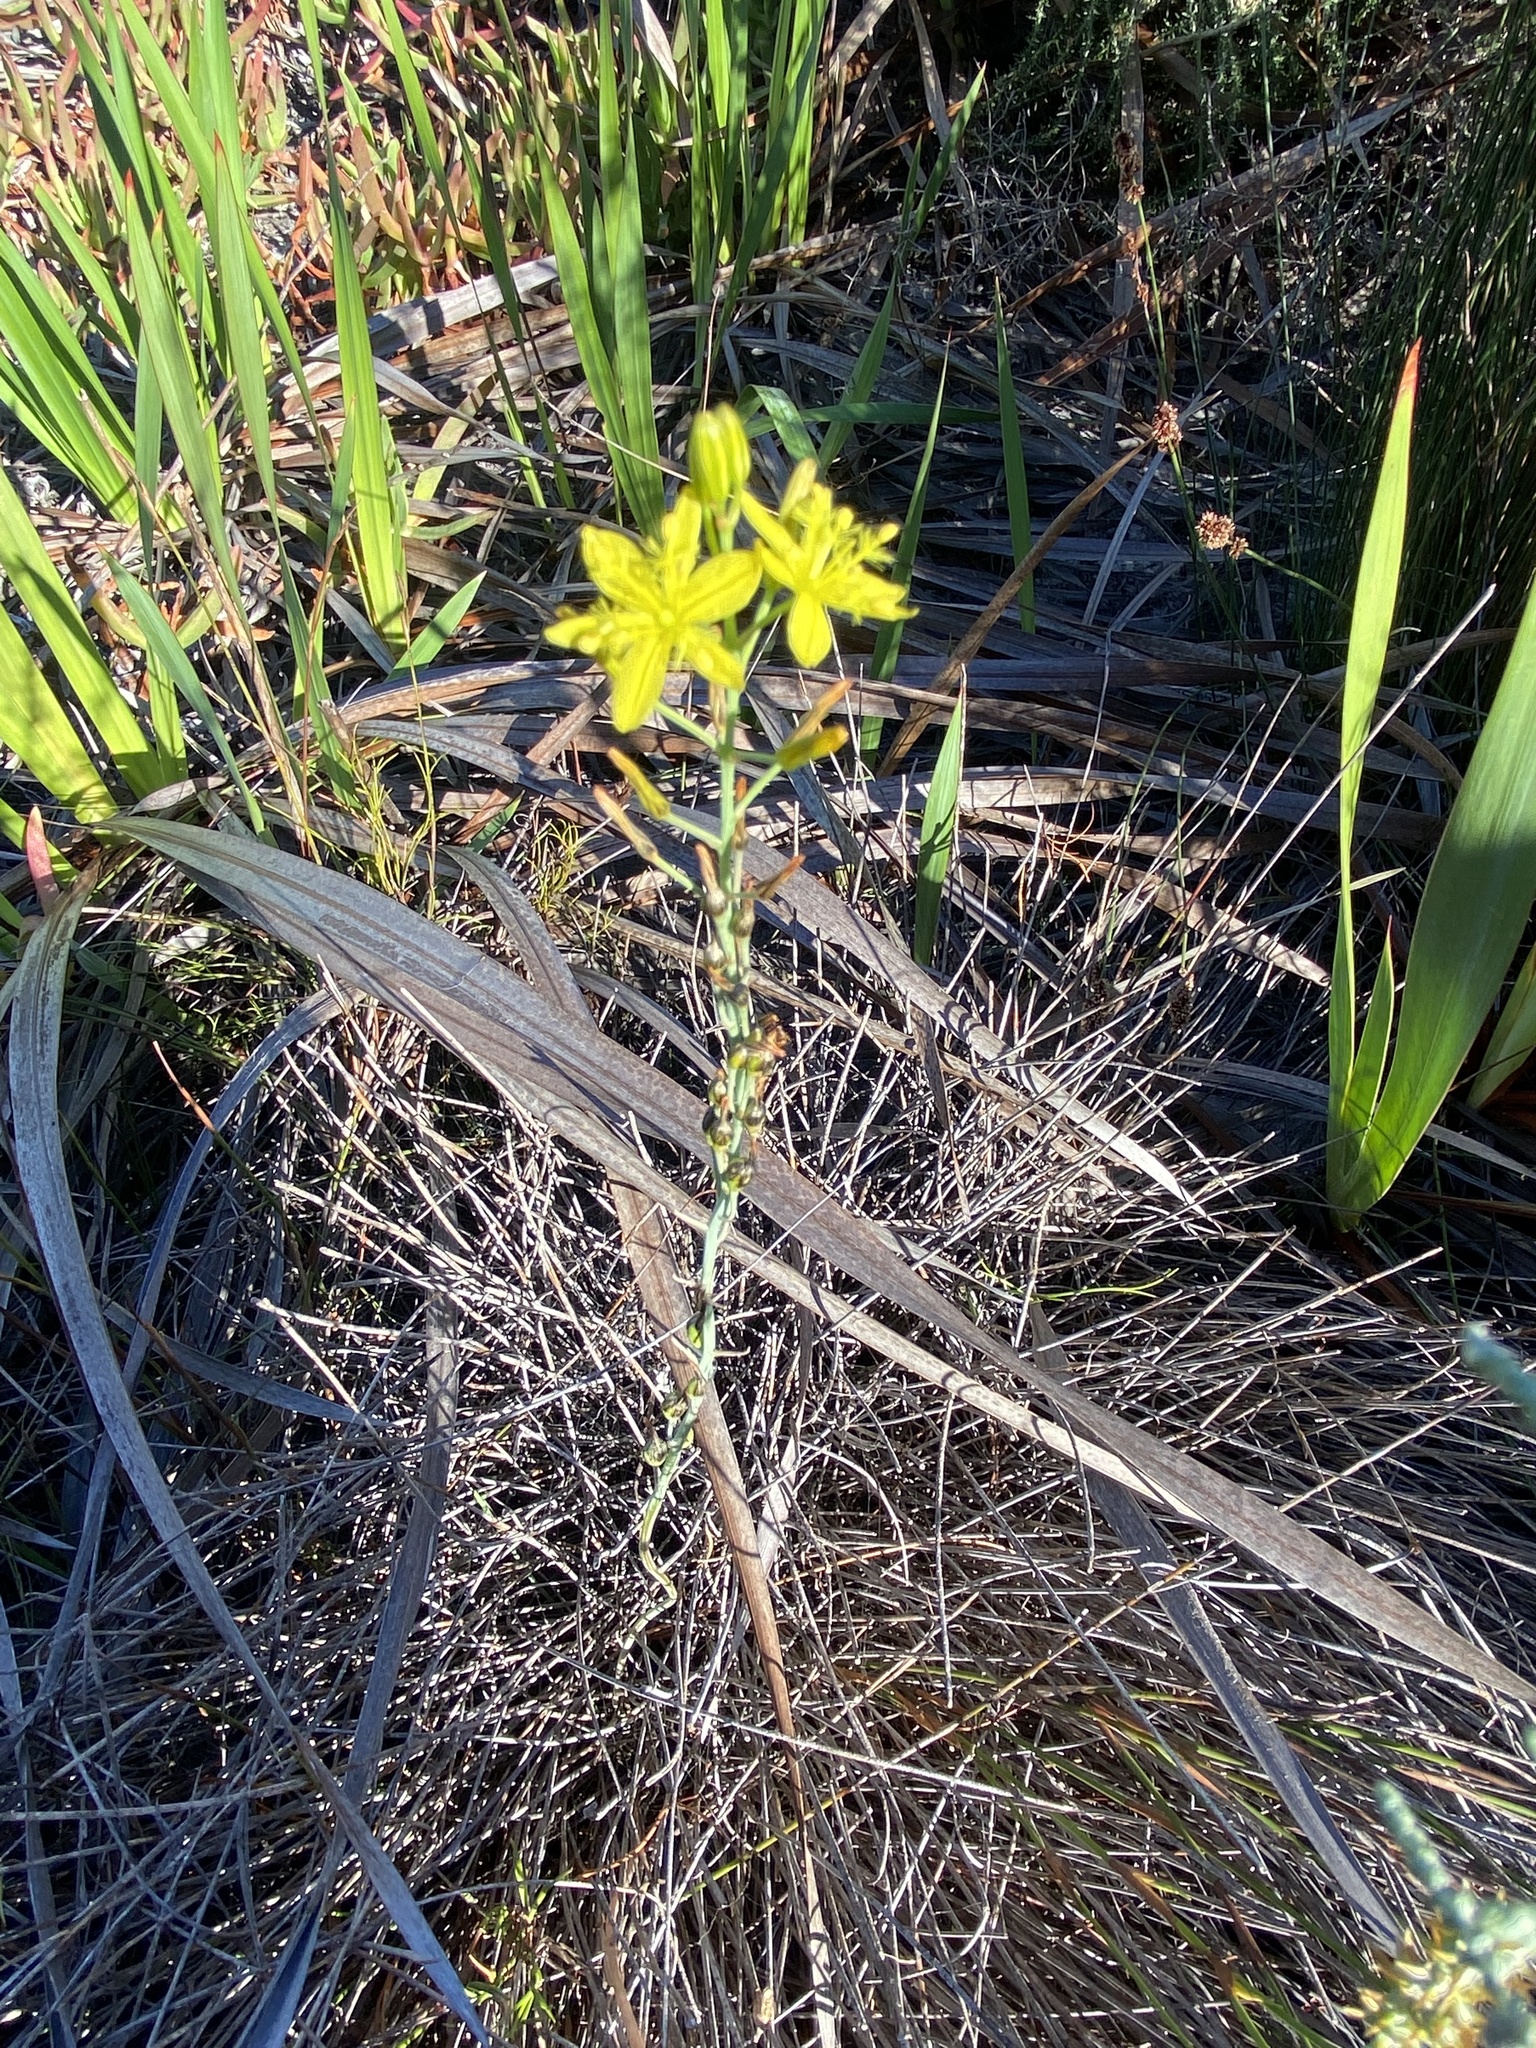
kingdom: Plantae
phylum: Tracheophyta
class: Liliopsida
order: Asparagales
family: Asphodelaceae
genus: Bulbine
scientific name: Bulbine favosa
